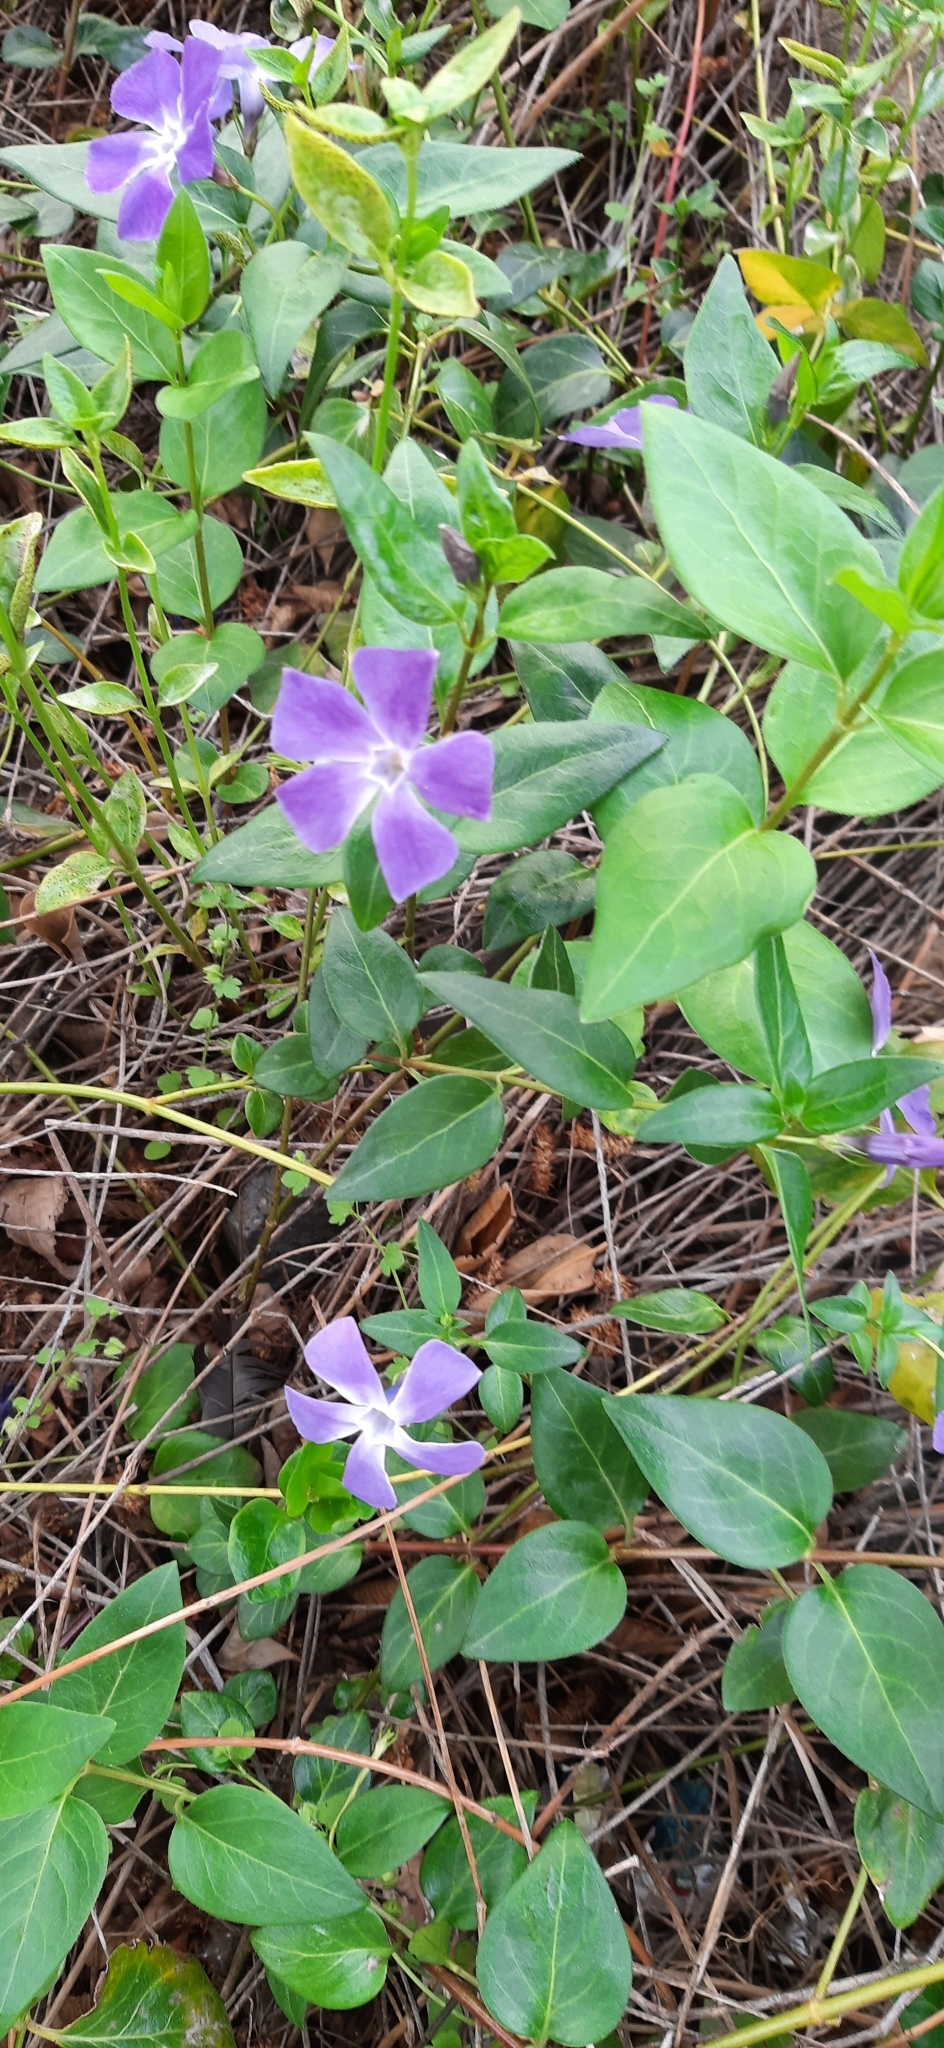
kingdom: Plantae
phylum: Tracheophyta
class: Magnoliopsida
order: Gentianales
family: Apocynaceae
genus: Vinca
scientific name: Vinca major
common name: Greater periwinkle
